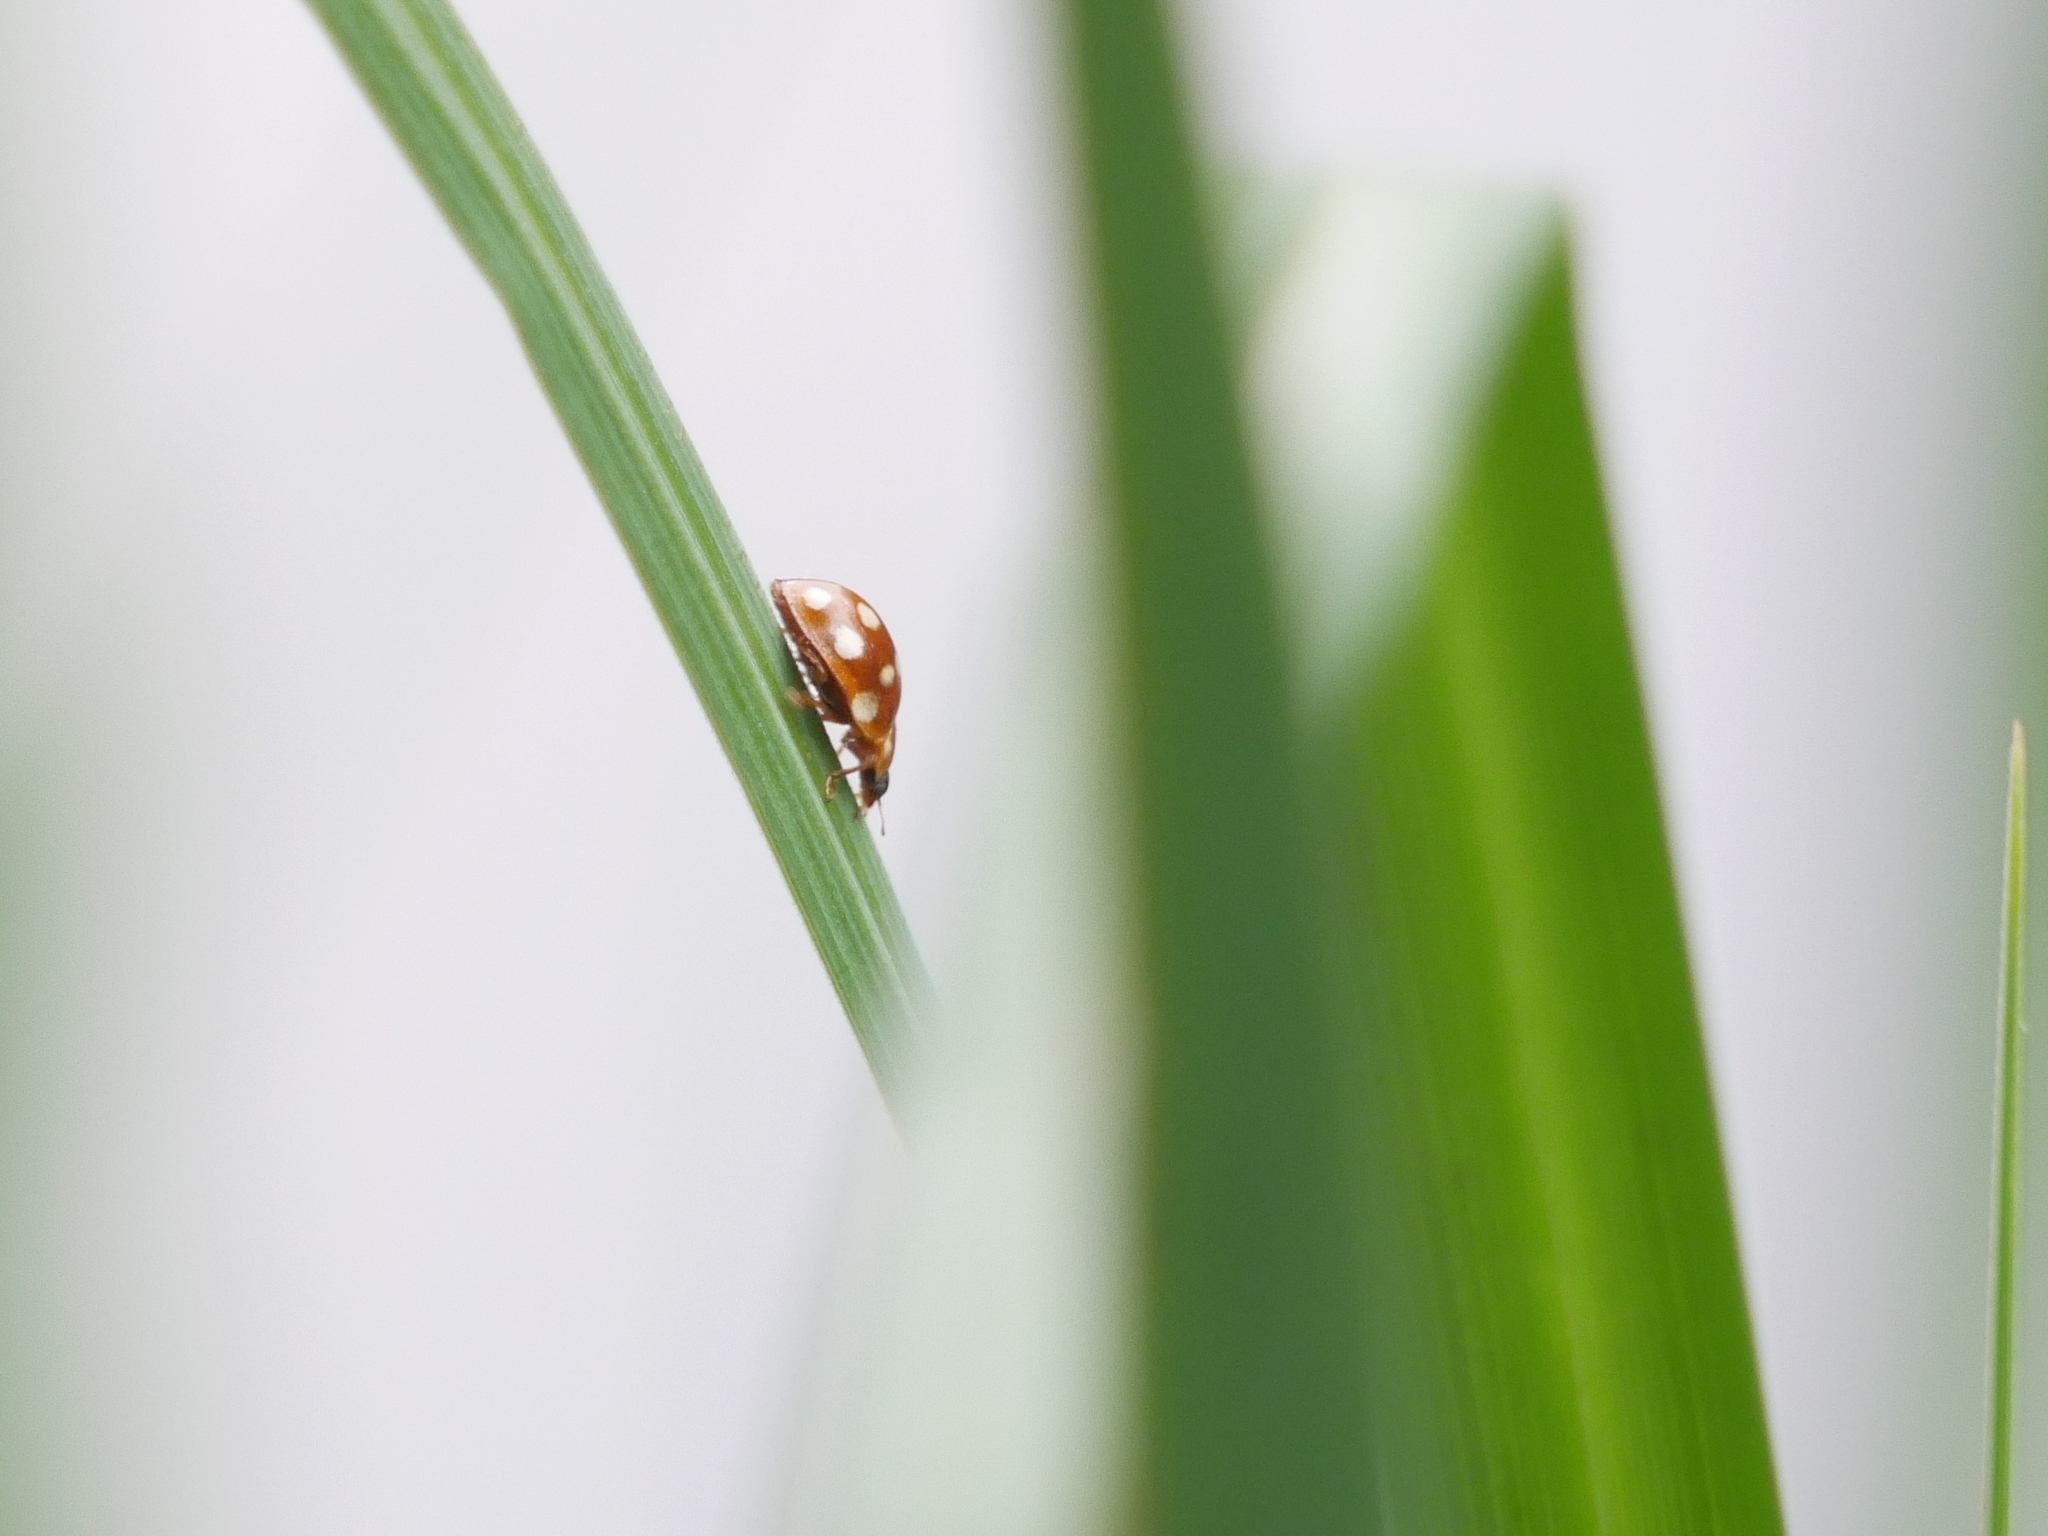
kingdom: Animalia
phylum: Arthropoda
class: Insecta
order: Coleoptera
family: Coccinellidae
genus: Calvia
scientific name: Calvia quatuordecimguttata
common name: Cream-spot ladybird
